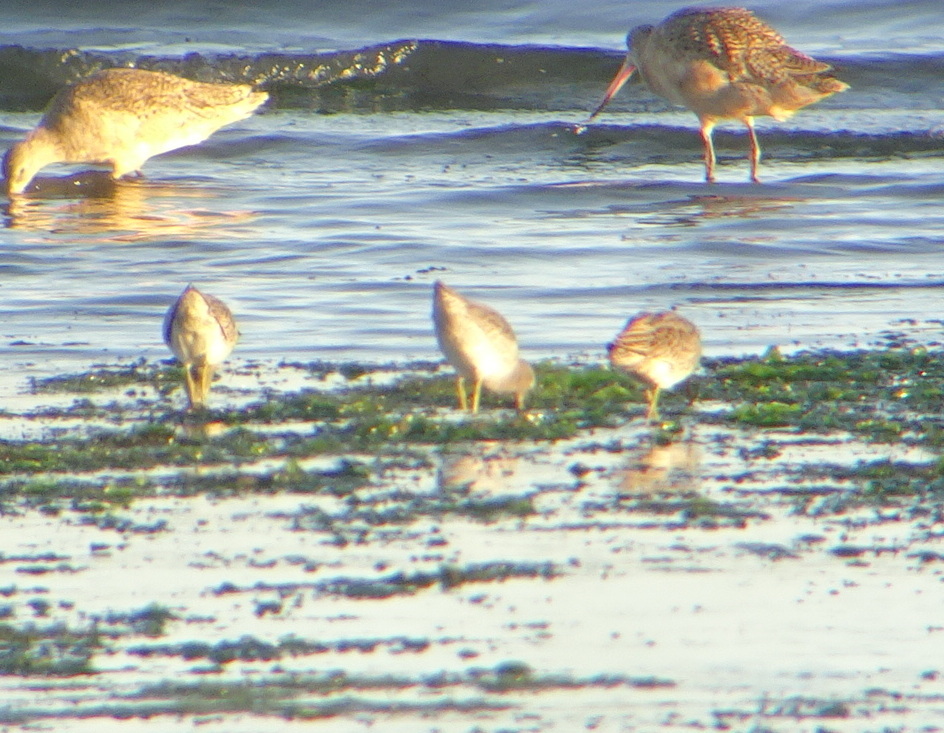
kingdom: Animalia
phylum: Chordata
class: Aves
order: Charadriiformes
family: Scolopacidae
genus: Limnodromus
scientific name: Limnodromus
